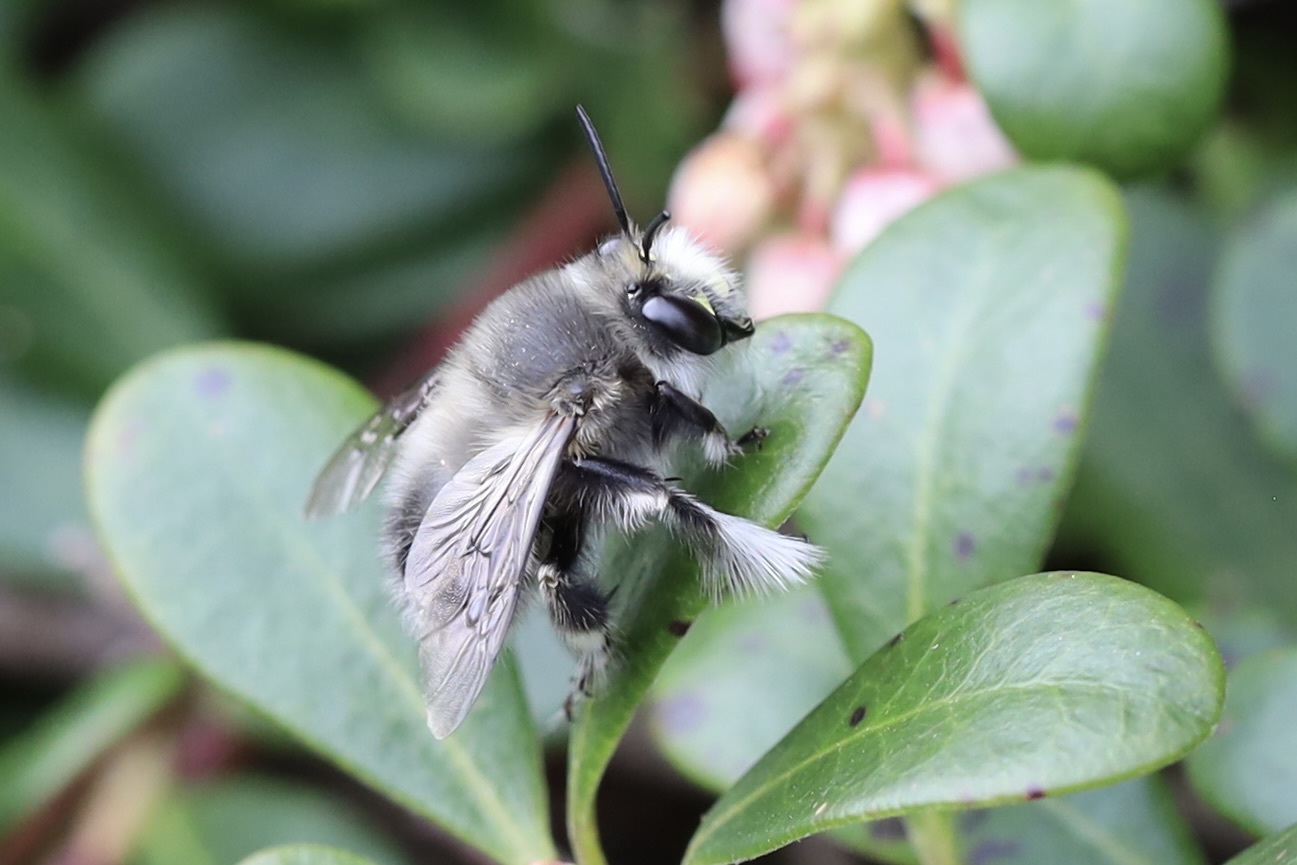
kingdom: Animalia
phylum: Arthropoda
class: Insecta
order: Hymenoptera
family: Apidae
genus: Anthophora
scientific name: Anthophora pacifica
